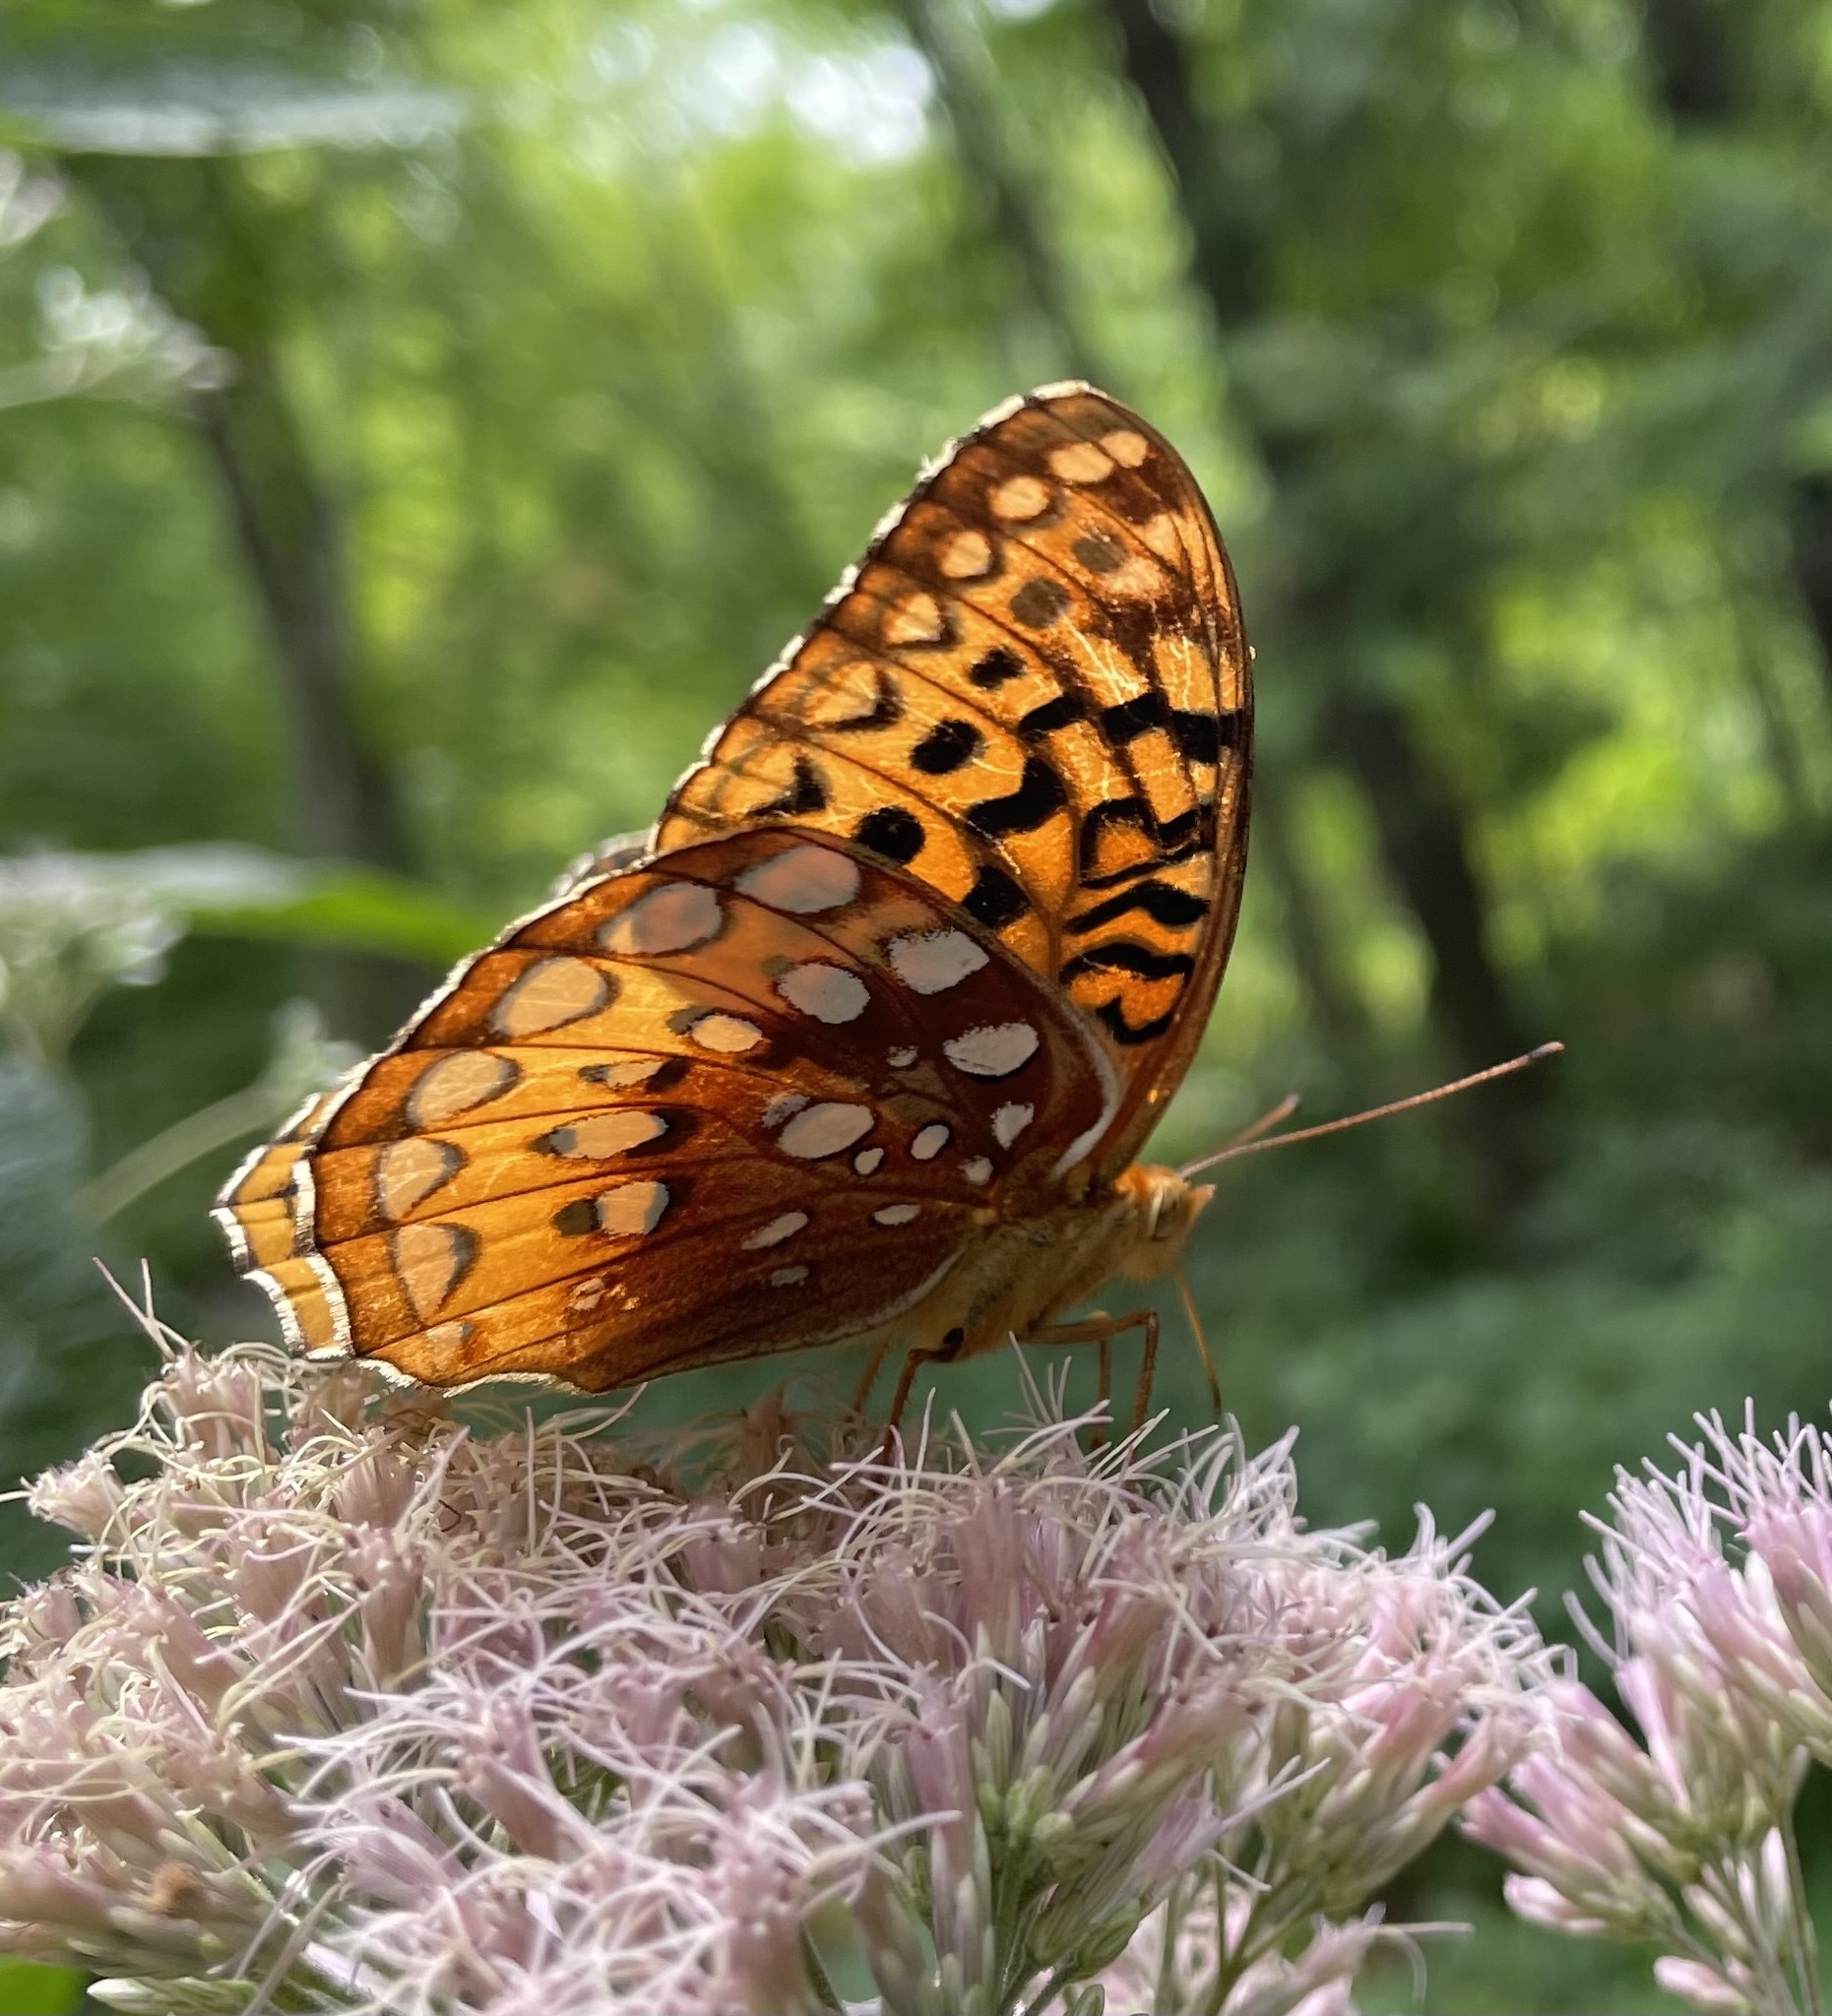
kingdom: Animalia
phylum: Arthropoda
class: Insecta
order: Lepidoptera
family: Nymphalidae
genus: Speyeria
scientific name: Speyeria cybele
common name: Great spangled fritillary
